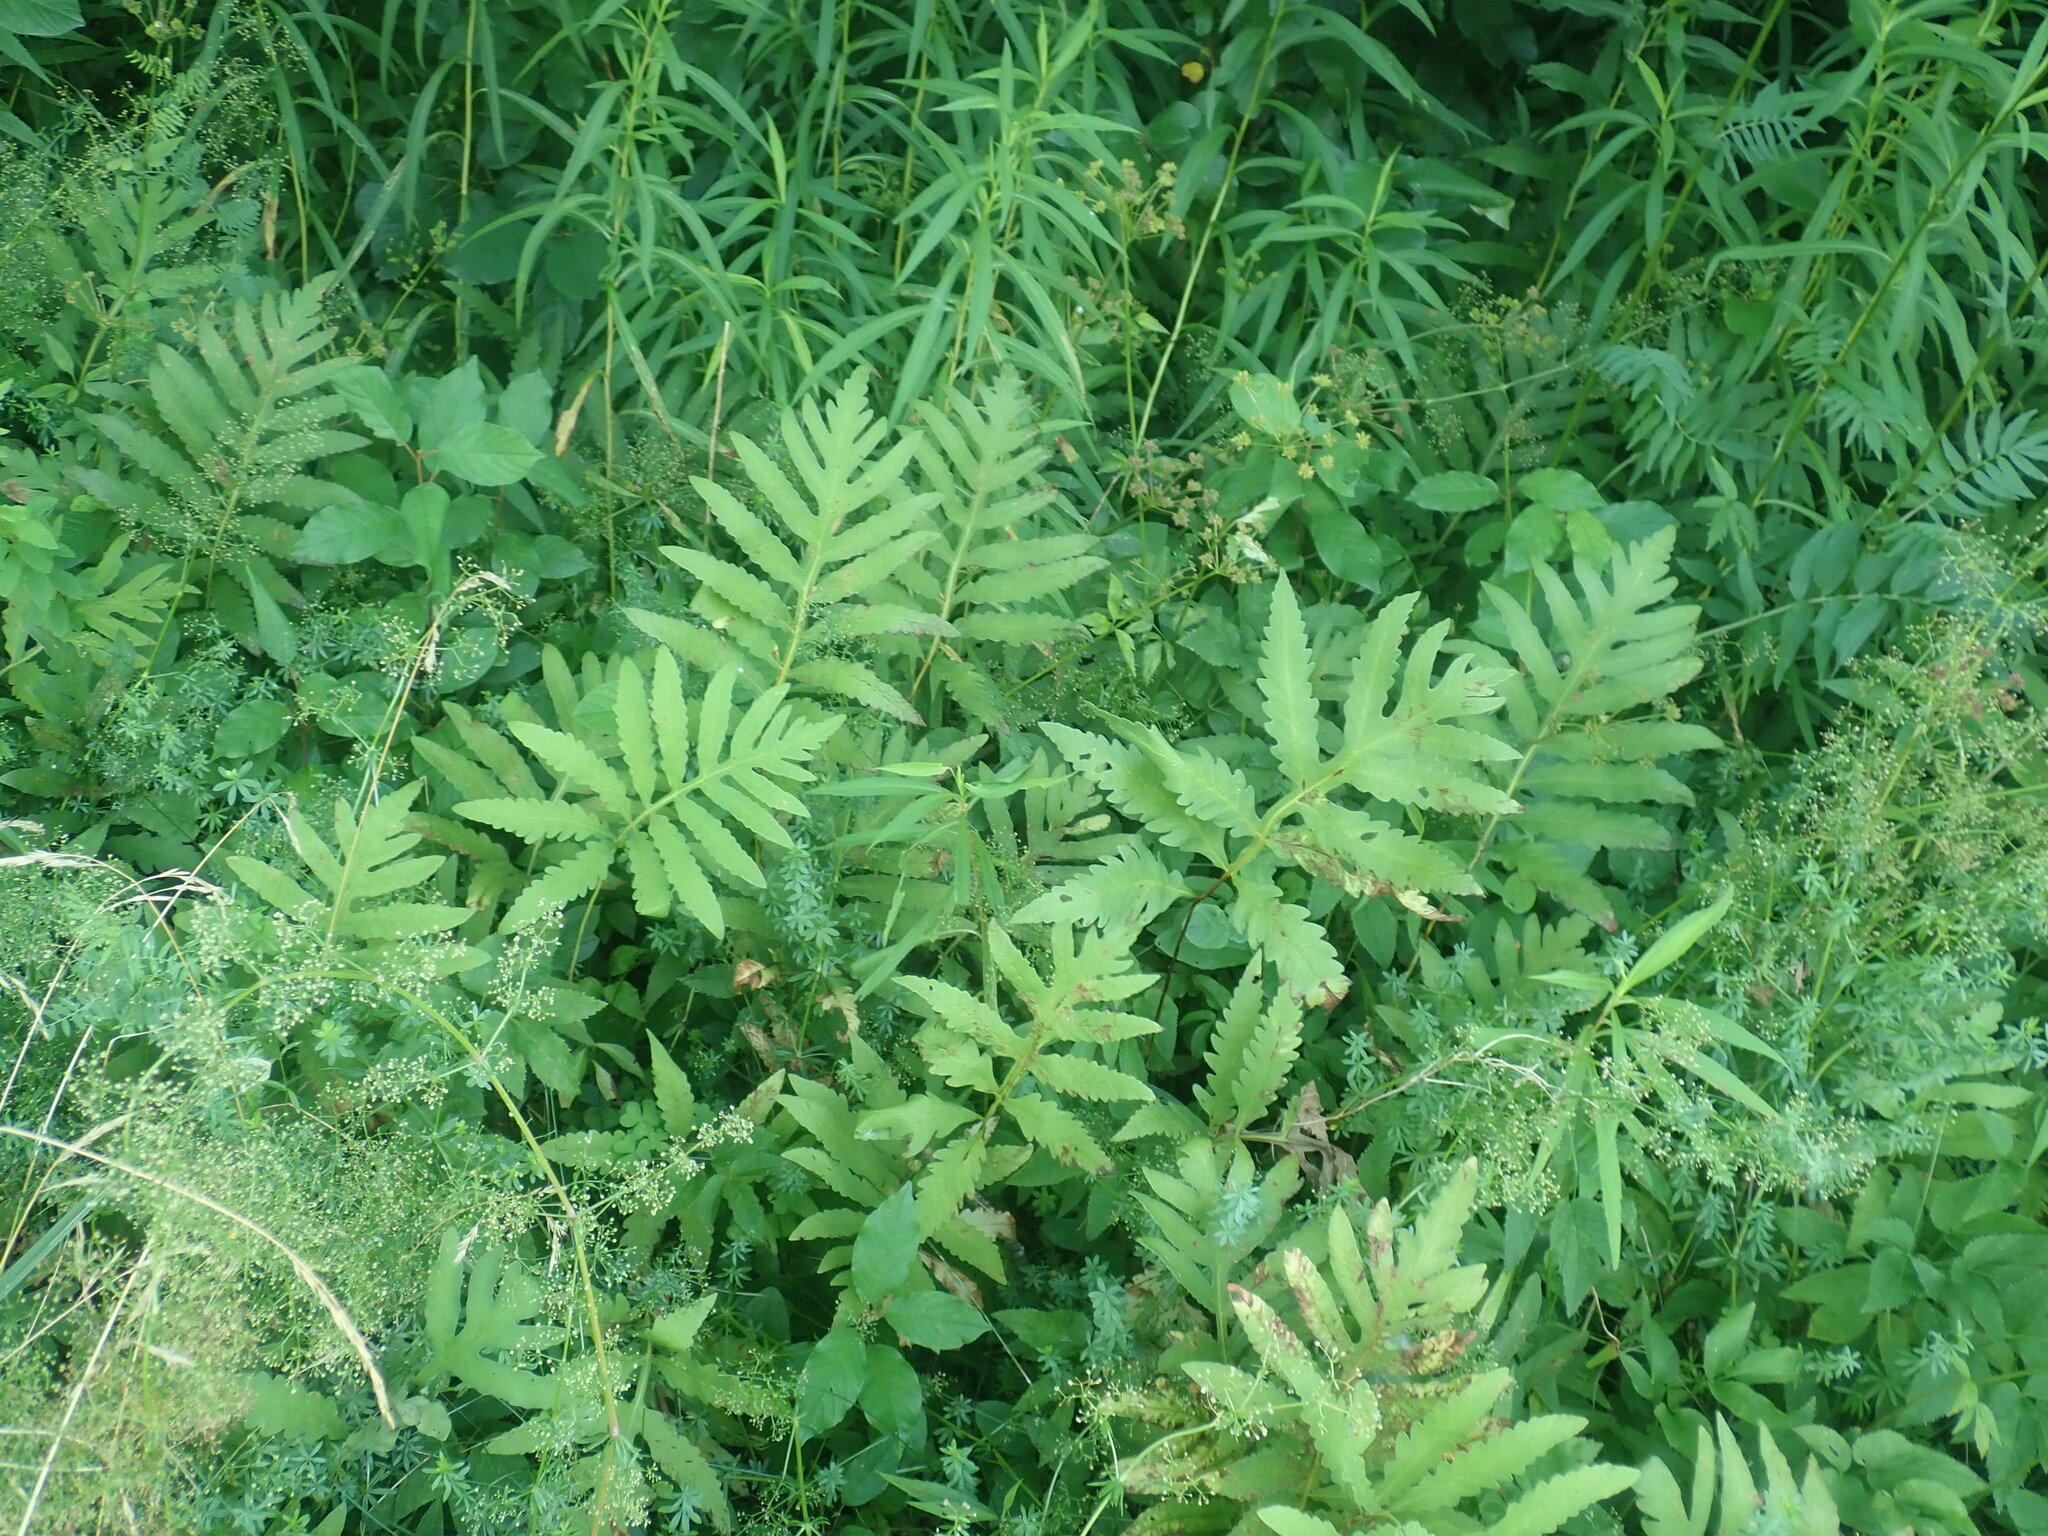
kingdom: Plantae
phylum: Tracheophyta
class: Polypodiopsida
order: Polypodiales
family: Onocleaceae
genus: Onoclea
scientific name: Onoclea sensibilis
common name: Sensitive fern
